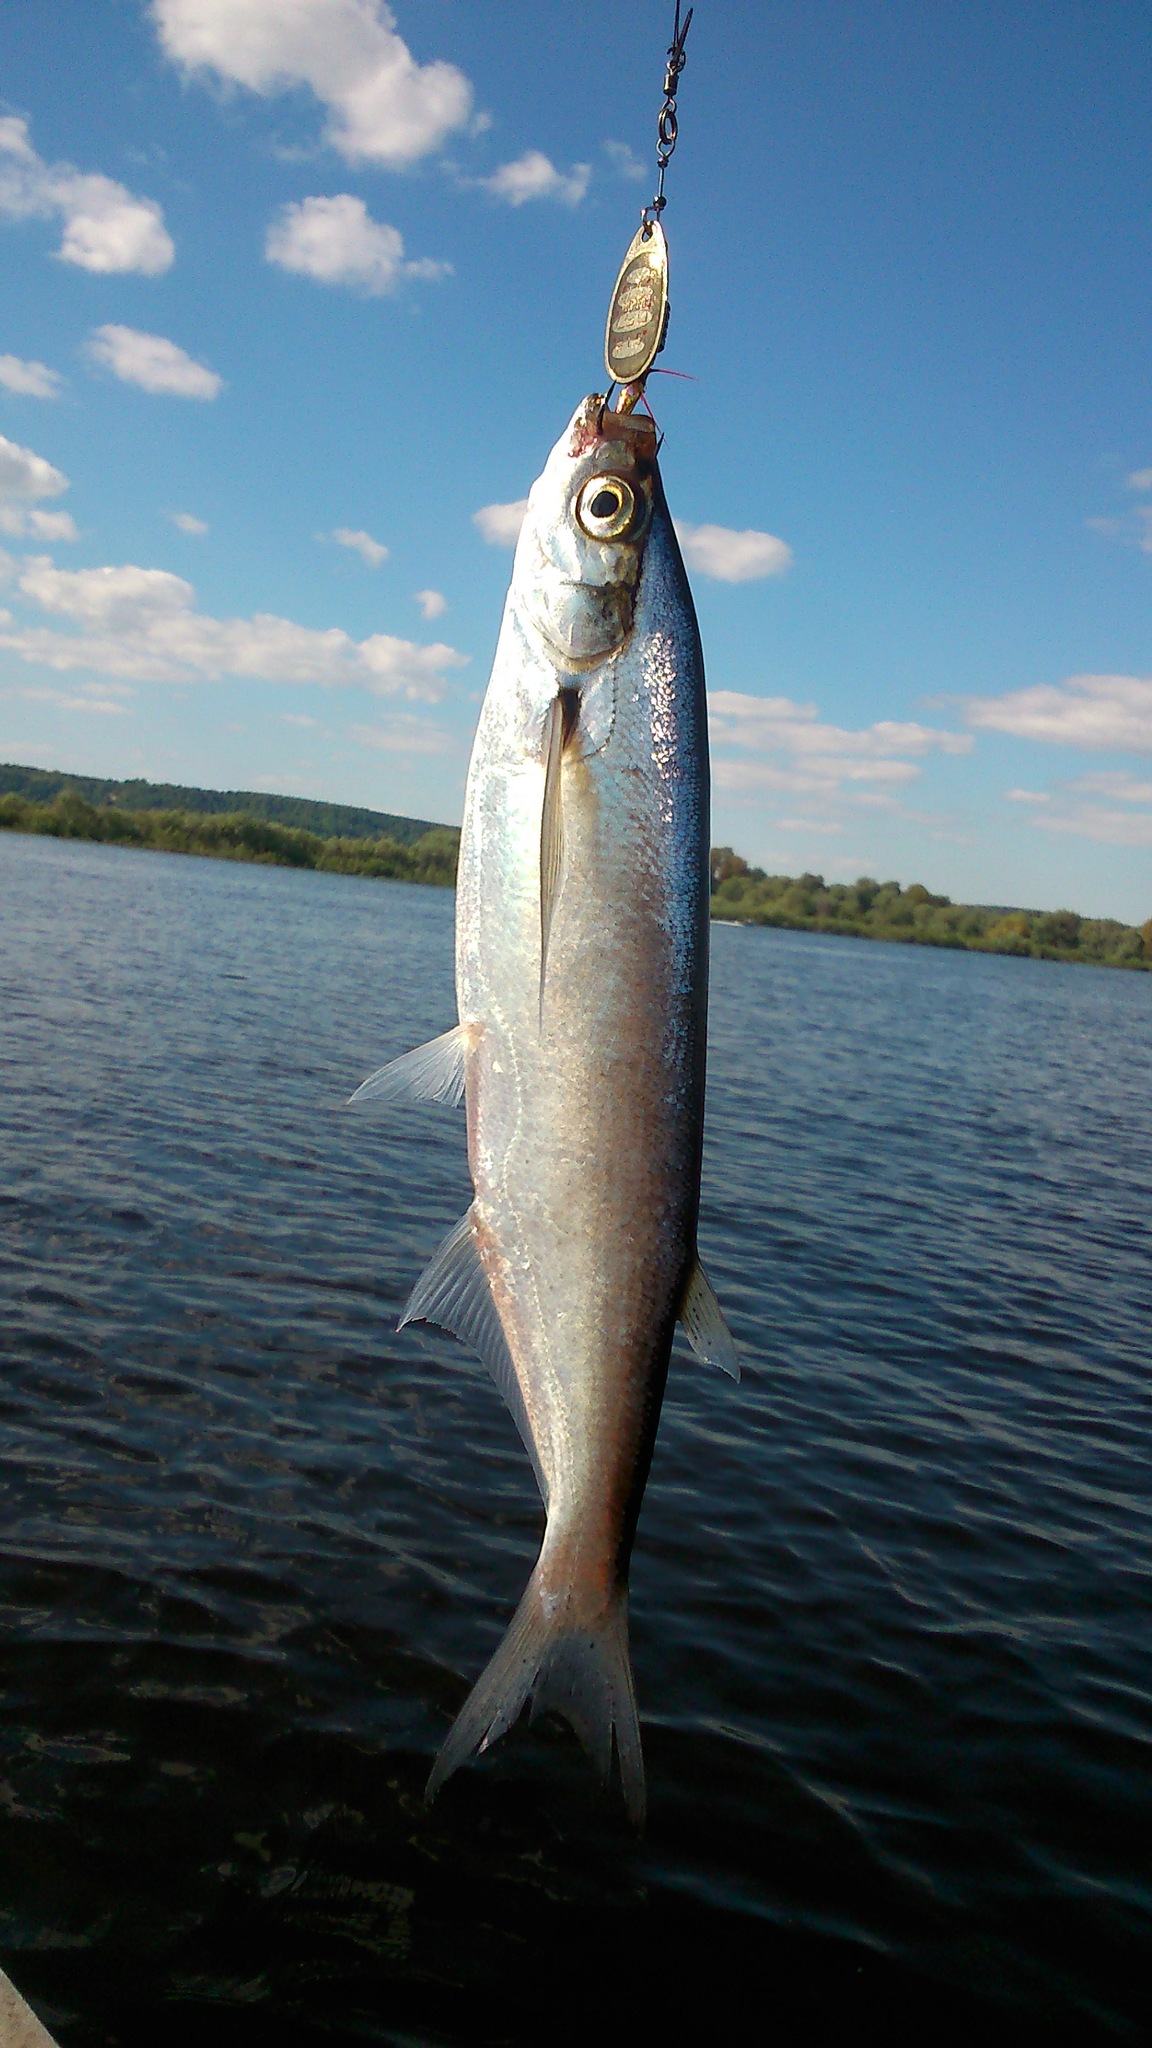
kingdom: Animalia
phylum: Chordata
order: Cypriniformes
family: Cyprinidae
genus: Pelecus
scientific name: Pelecus cultratus
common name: Ziege
